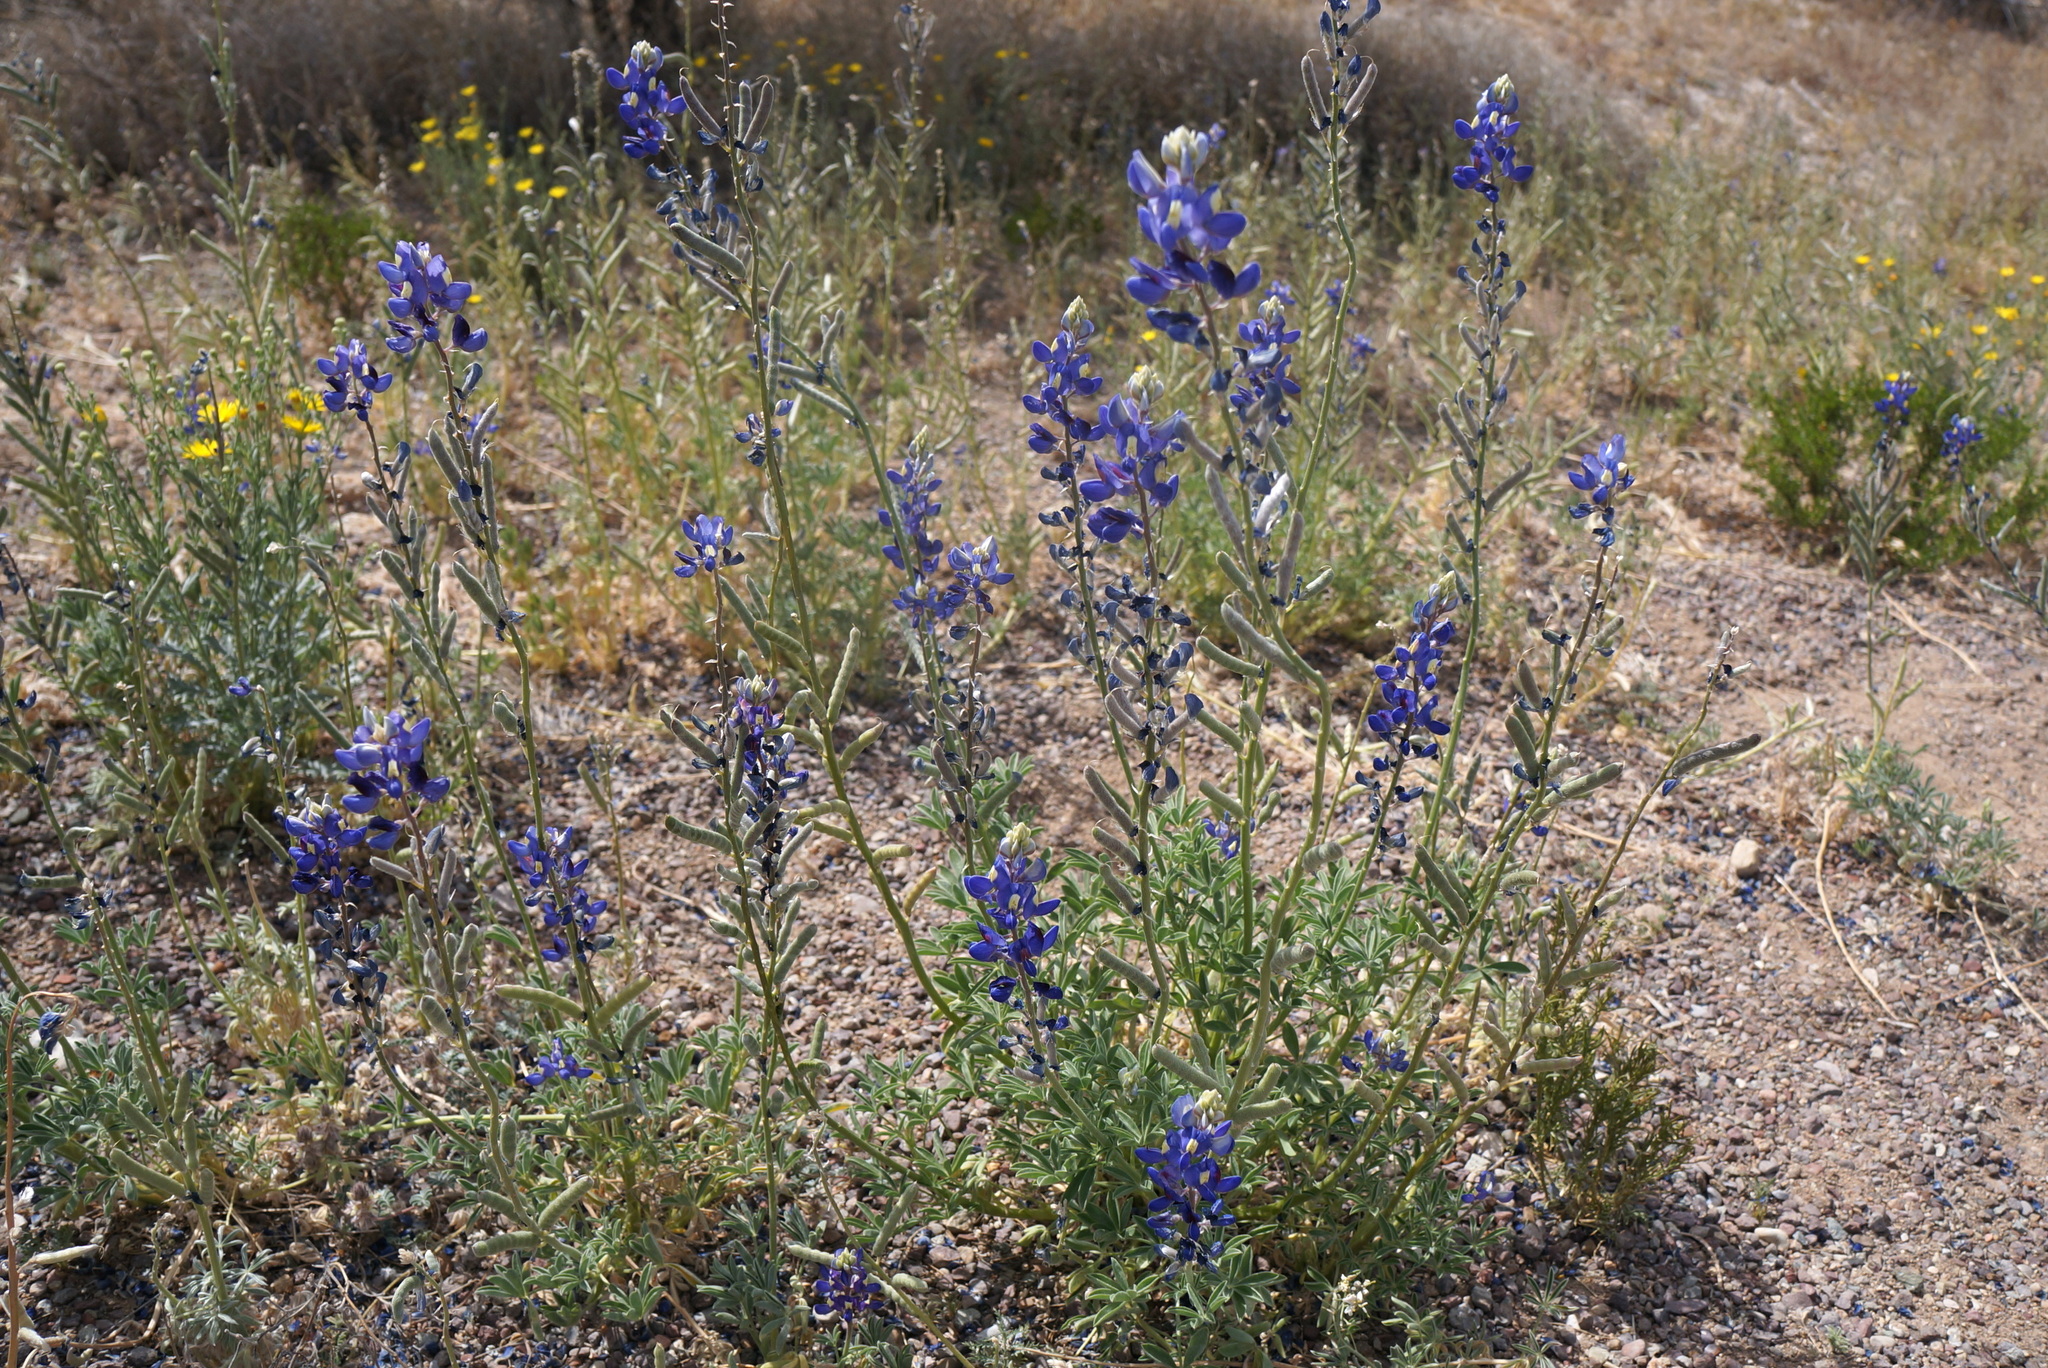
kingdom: Plantae
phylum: Tracheophyta
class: Magnoliopsida
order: Fabales
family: Fabaceae
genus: Lupinus
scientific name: Lupinus havardii
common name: Chisos bluebonnet
